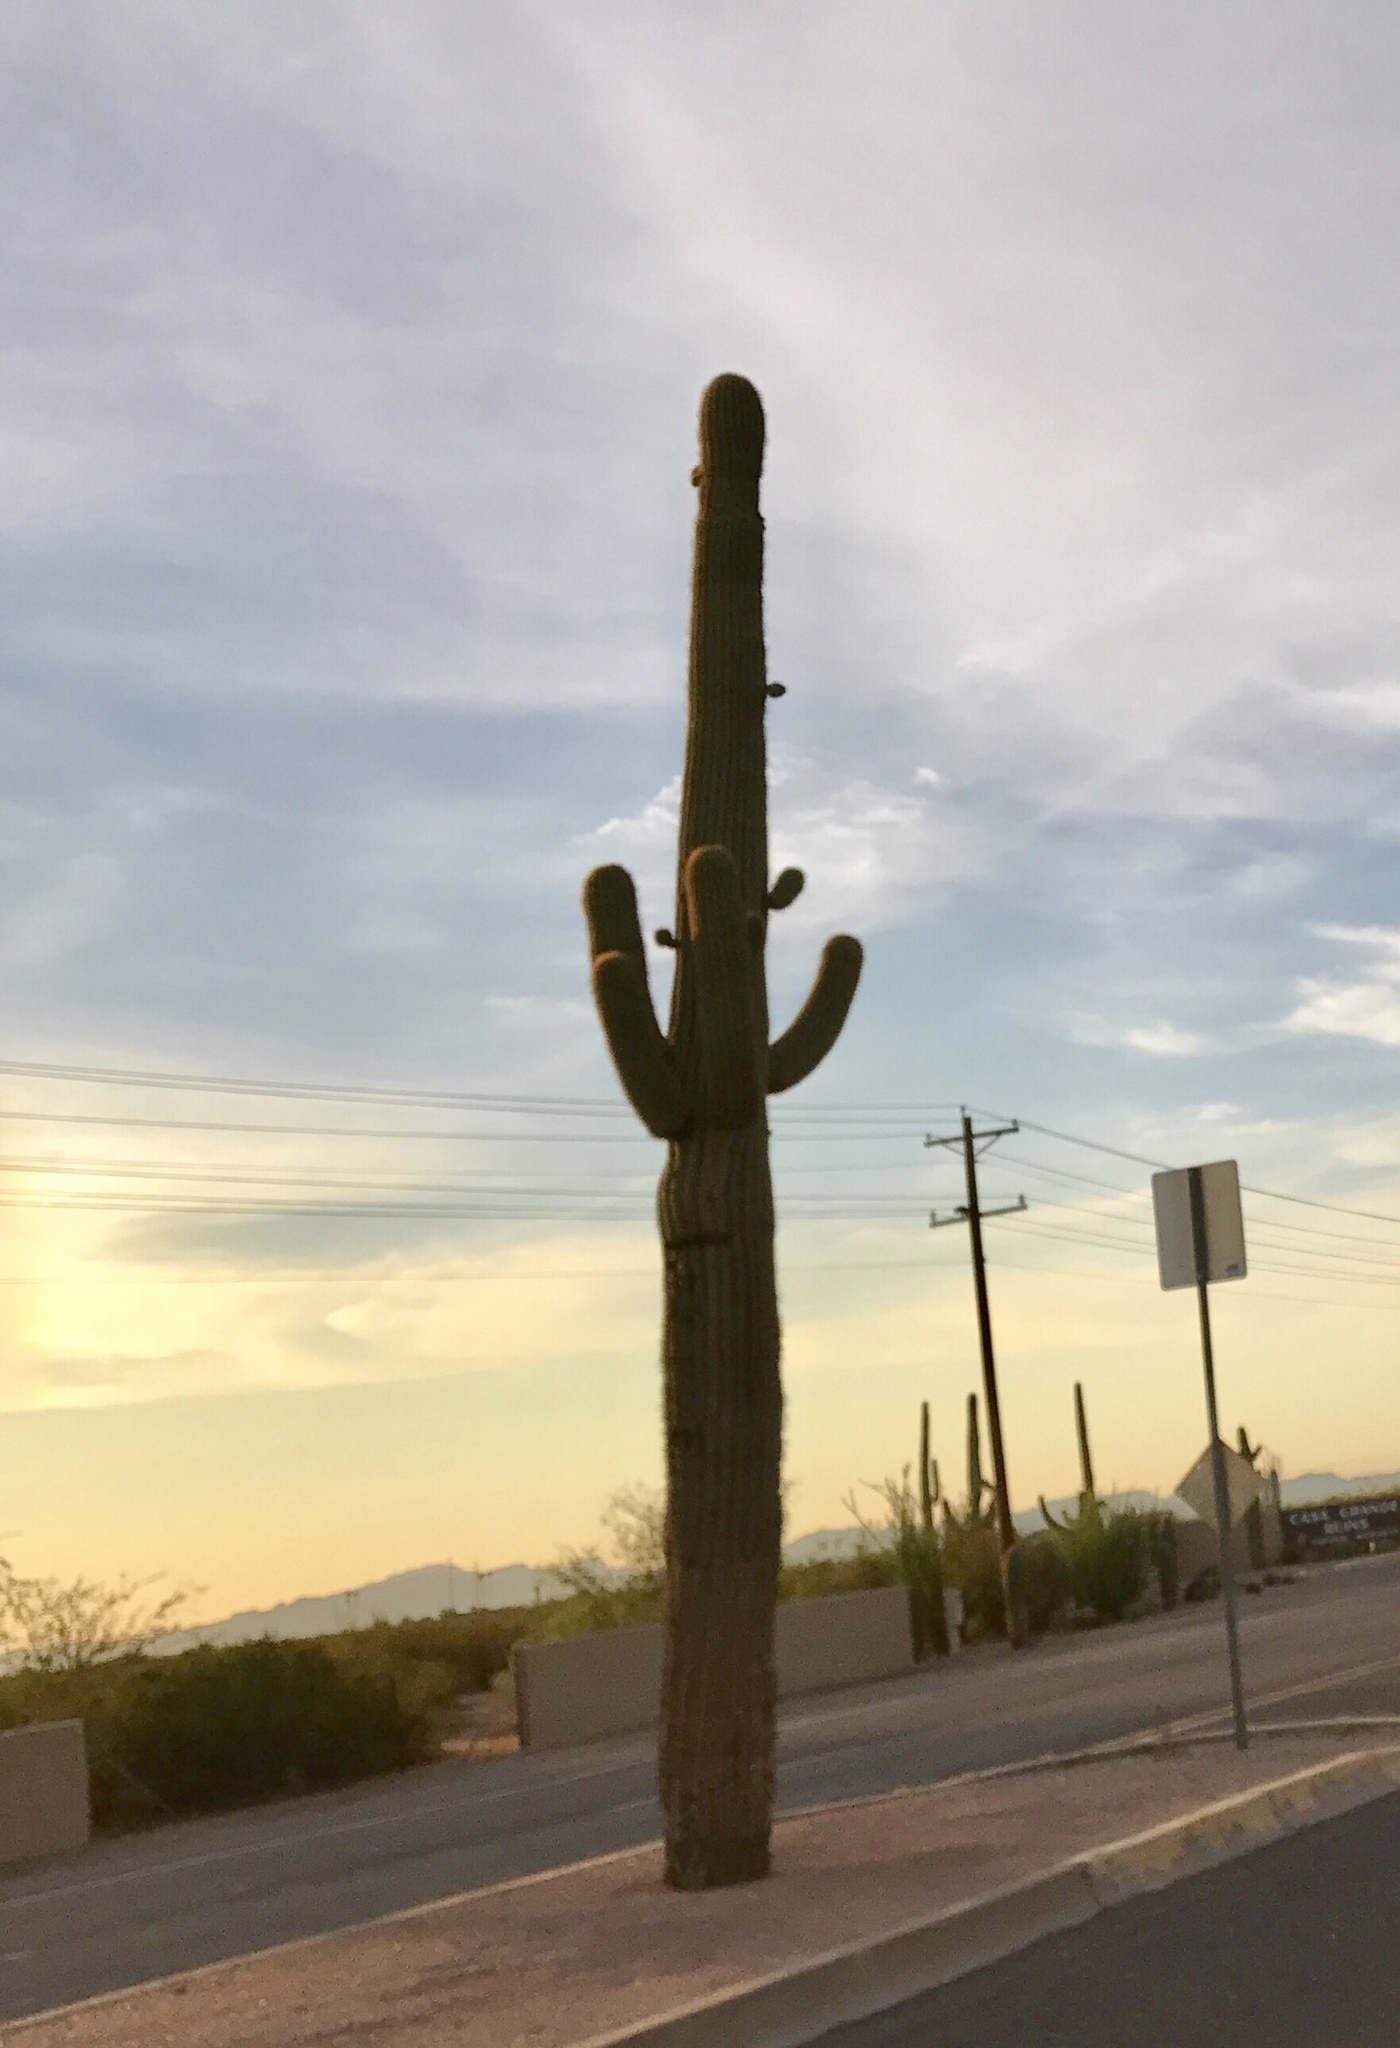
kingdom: Plantae
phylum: Tracheophyta
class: Magnoliopsida
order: Caryophyllales
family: Cactaceae
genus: Carnegiea
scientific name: Carnegiea gigantea
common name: Saguaro
